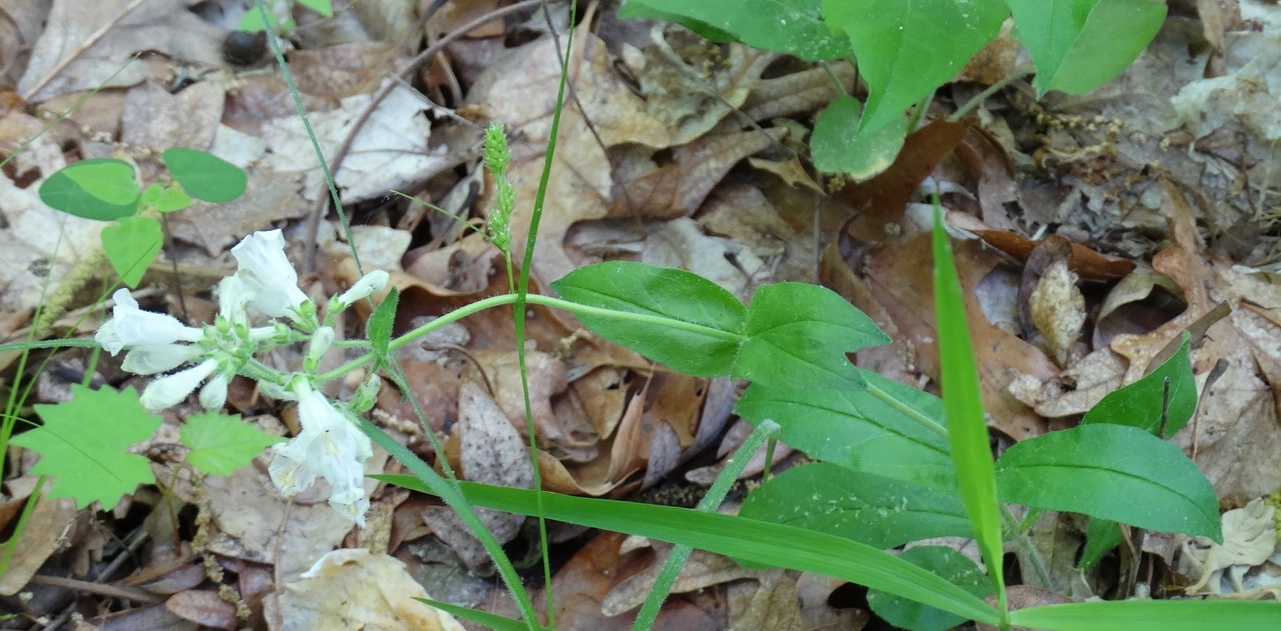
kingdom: Plantae
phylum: Tracheophyta
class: Magnoliopsida
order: Lamiales
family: Plantaginaceae
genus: Penstemon
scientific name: Penstemon pallidus
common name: Pale beardtongue
